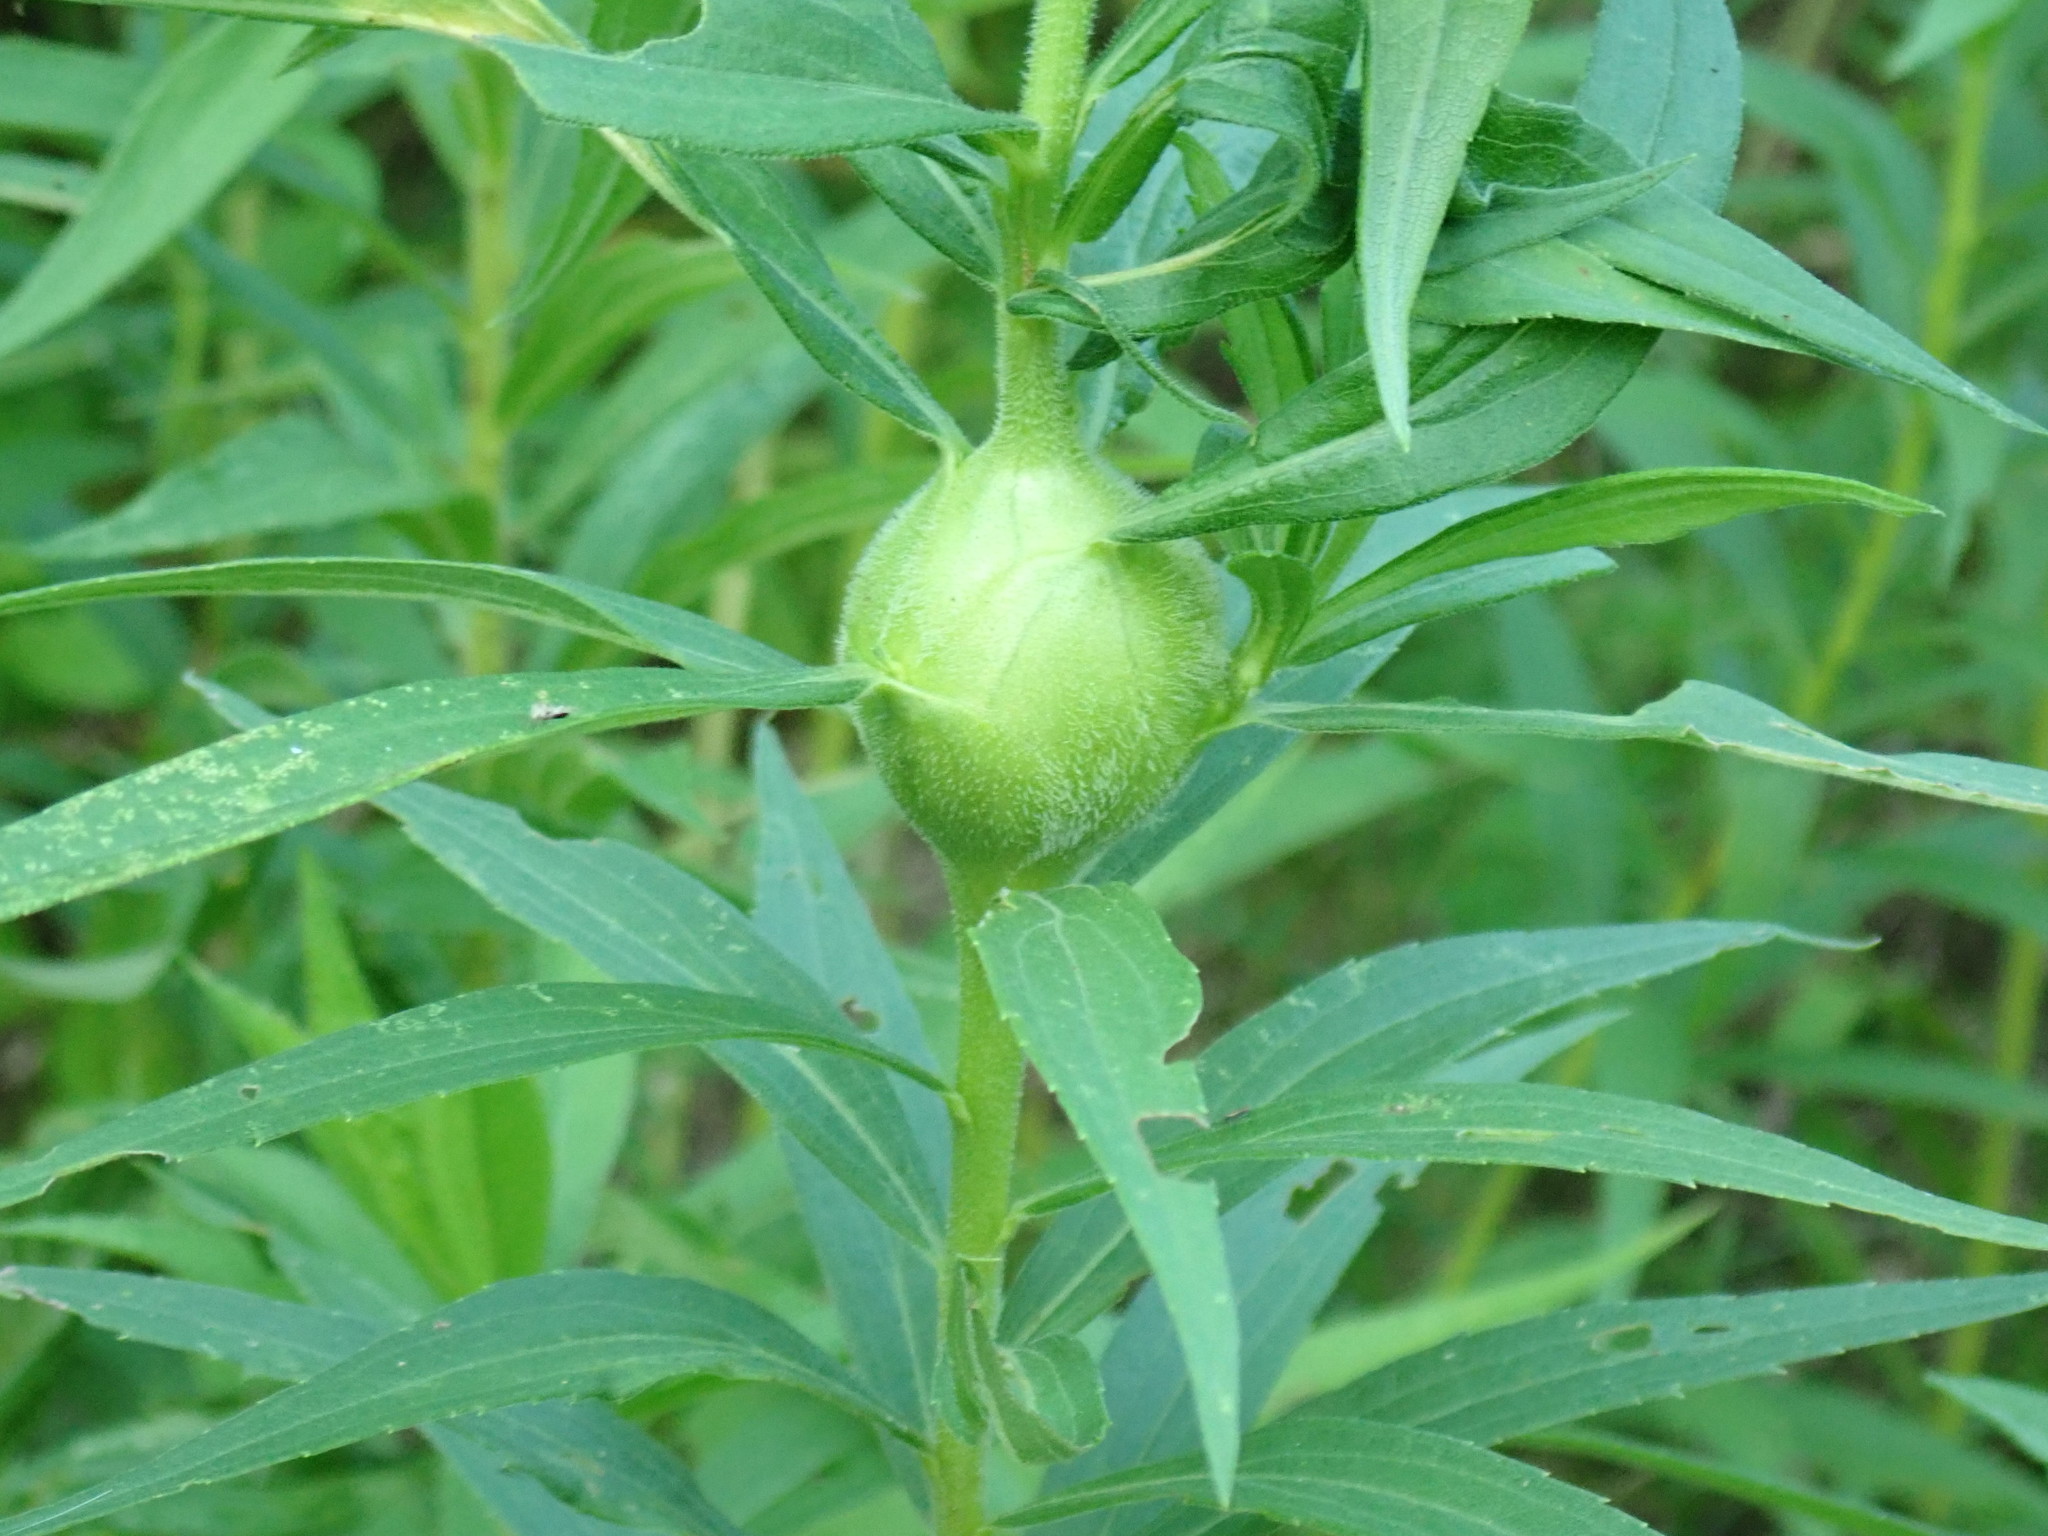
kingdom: Animalia
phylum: Arthropoda
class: Insecta
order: Diptera
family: Tephritidae
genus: Eurosta
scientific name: Eurosta solidaginis
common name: Goldenrod gall fly
